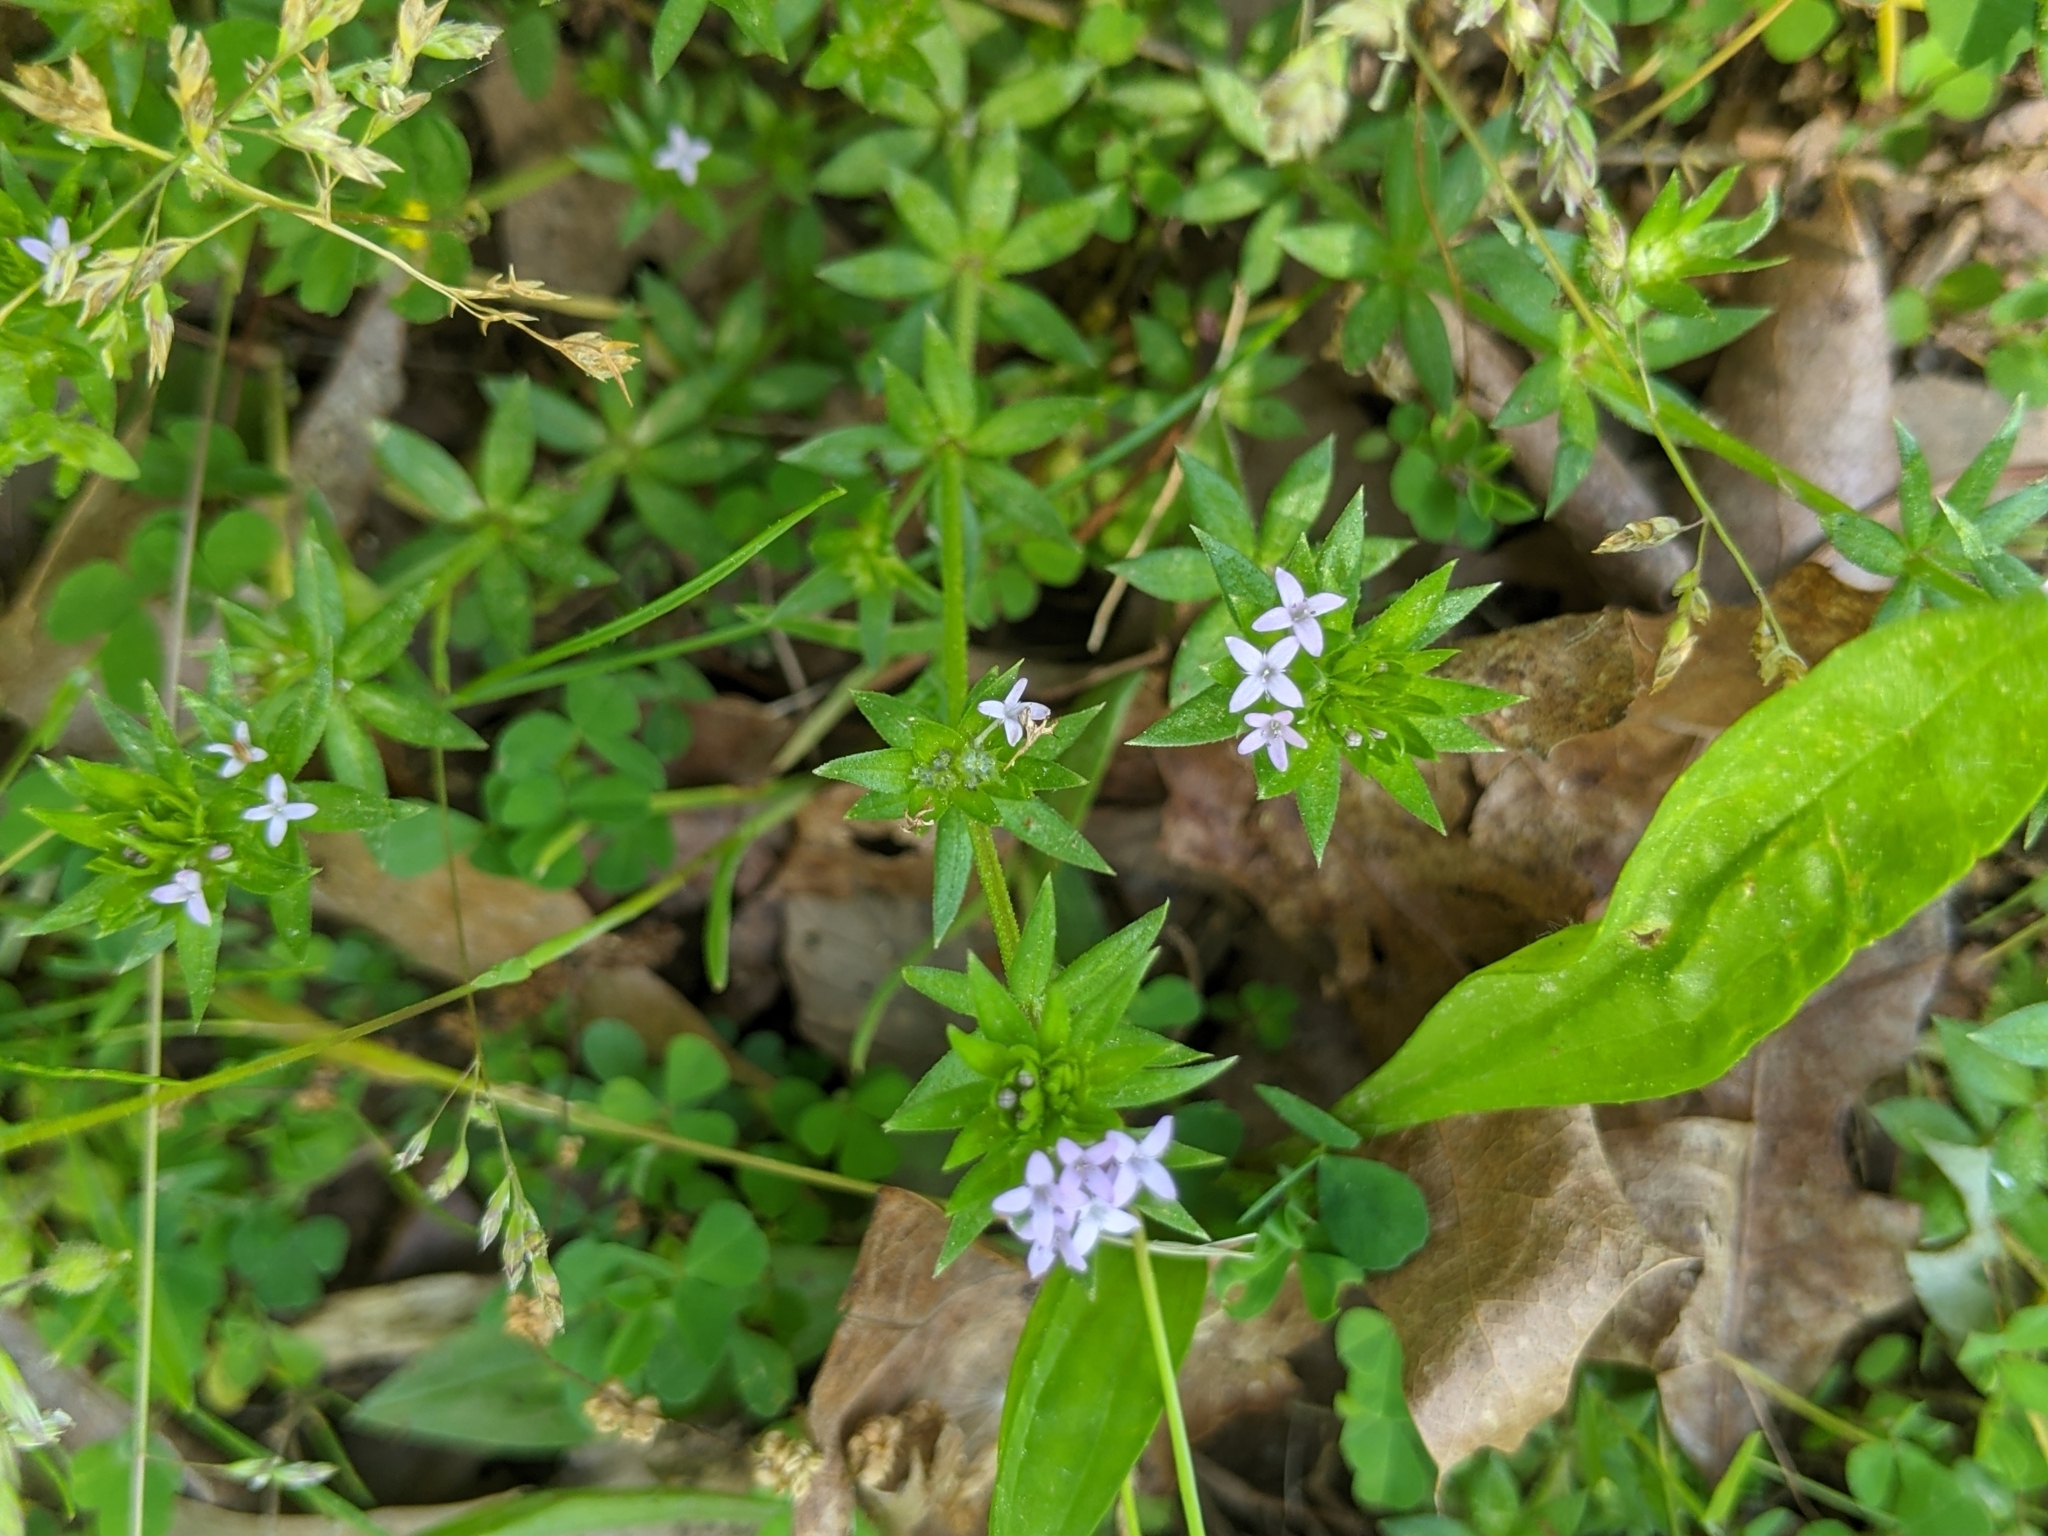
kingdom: Plantae
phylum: Tracheophyta
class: Magnoliopsida
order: Gentianales
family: Rubiaceae
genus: Sherardia
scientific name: Sherardia arvensis
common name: Field madder
